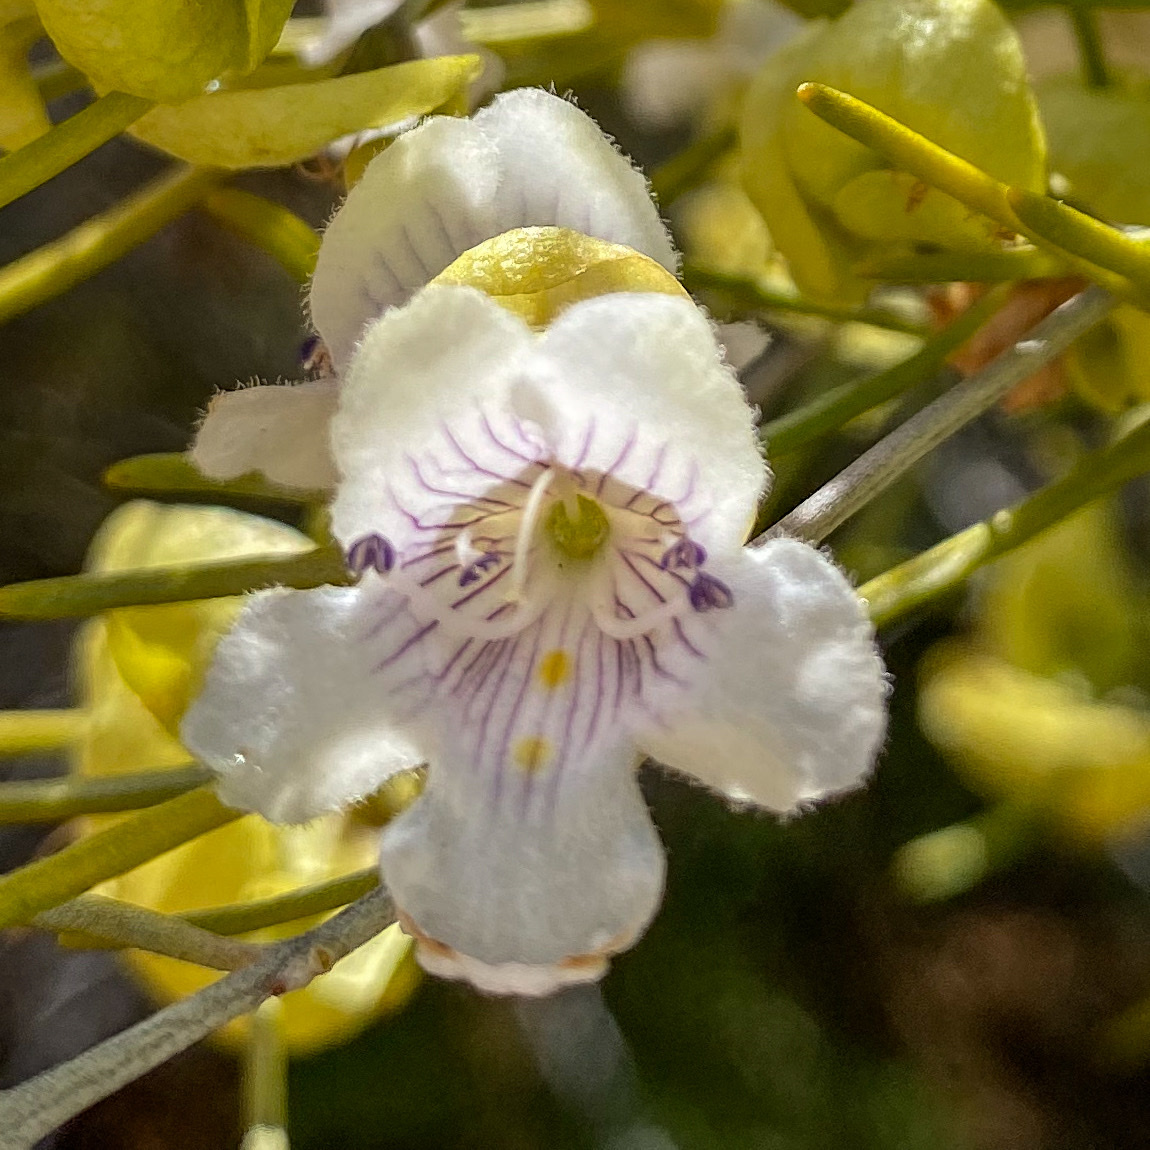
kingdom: Plantae
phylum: Tracheophyta
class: Magnoliopsida
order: Lamiales
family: Lamiaceae
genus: Prostanthera
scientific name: Prostanthera campbellii
